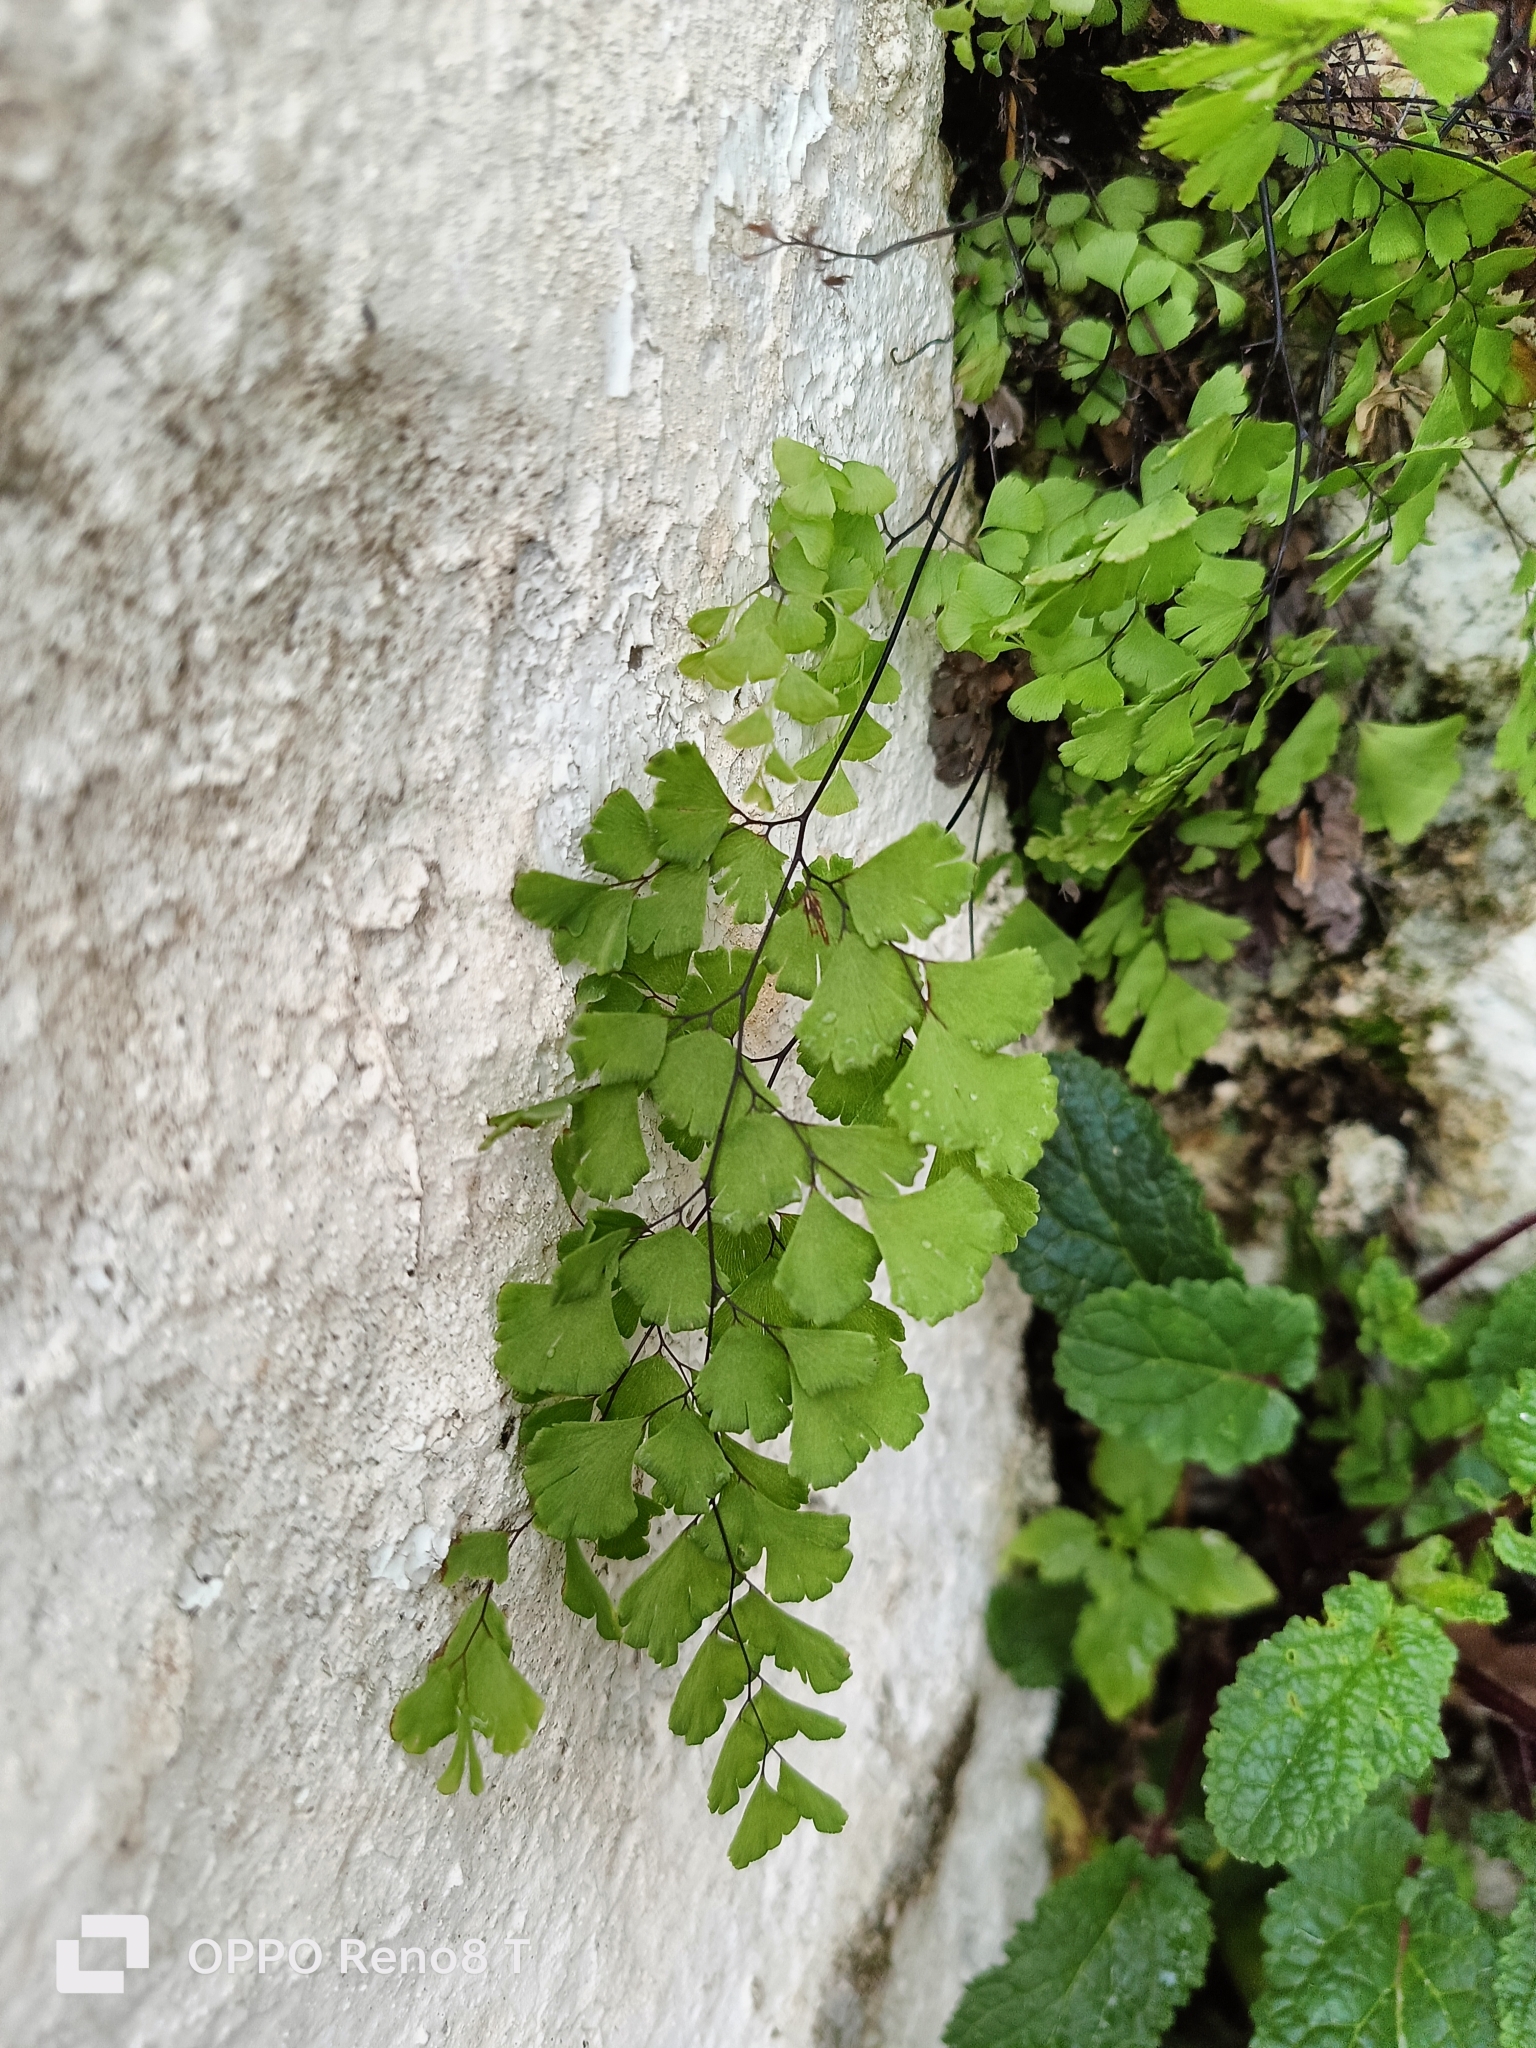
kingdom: Plantae
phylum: Tracheophyta
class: Polypodiopsida
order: Polypodiales
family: Pteridaceae
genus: Adiantum
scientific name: Adiantum capillus-veneris
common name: Maidenhair fern
